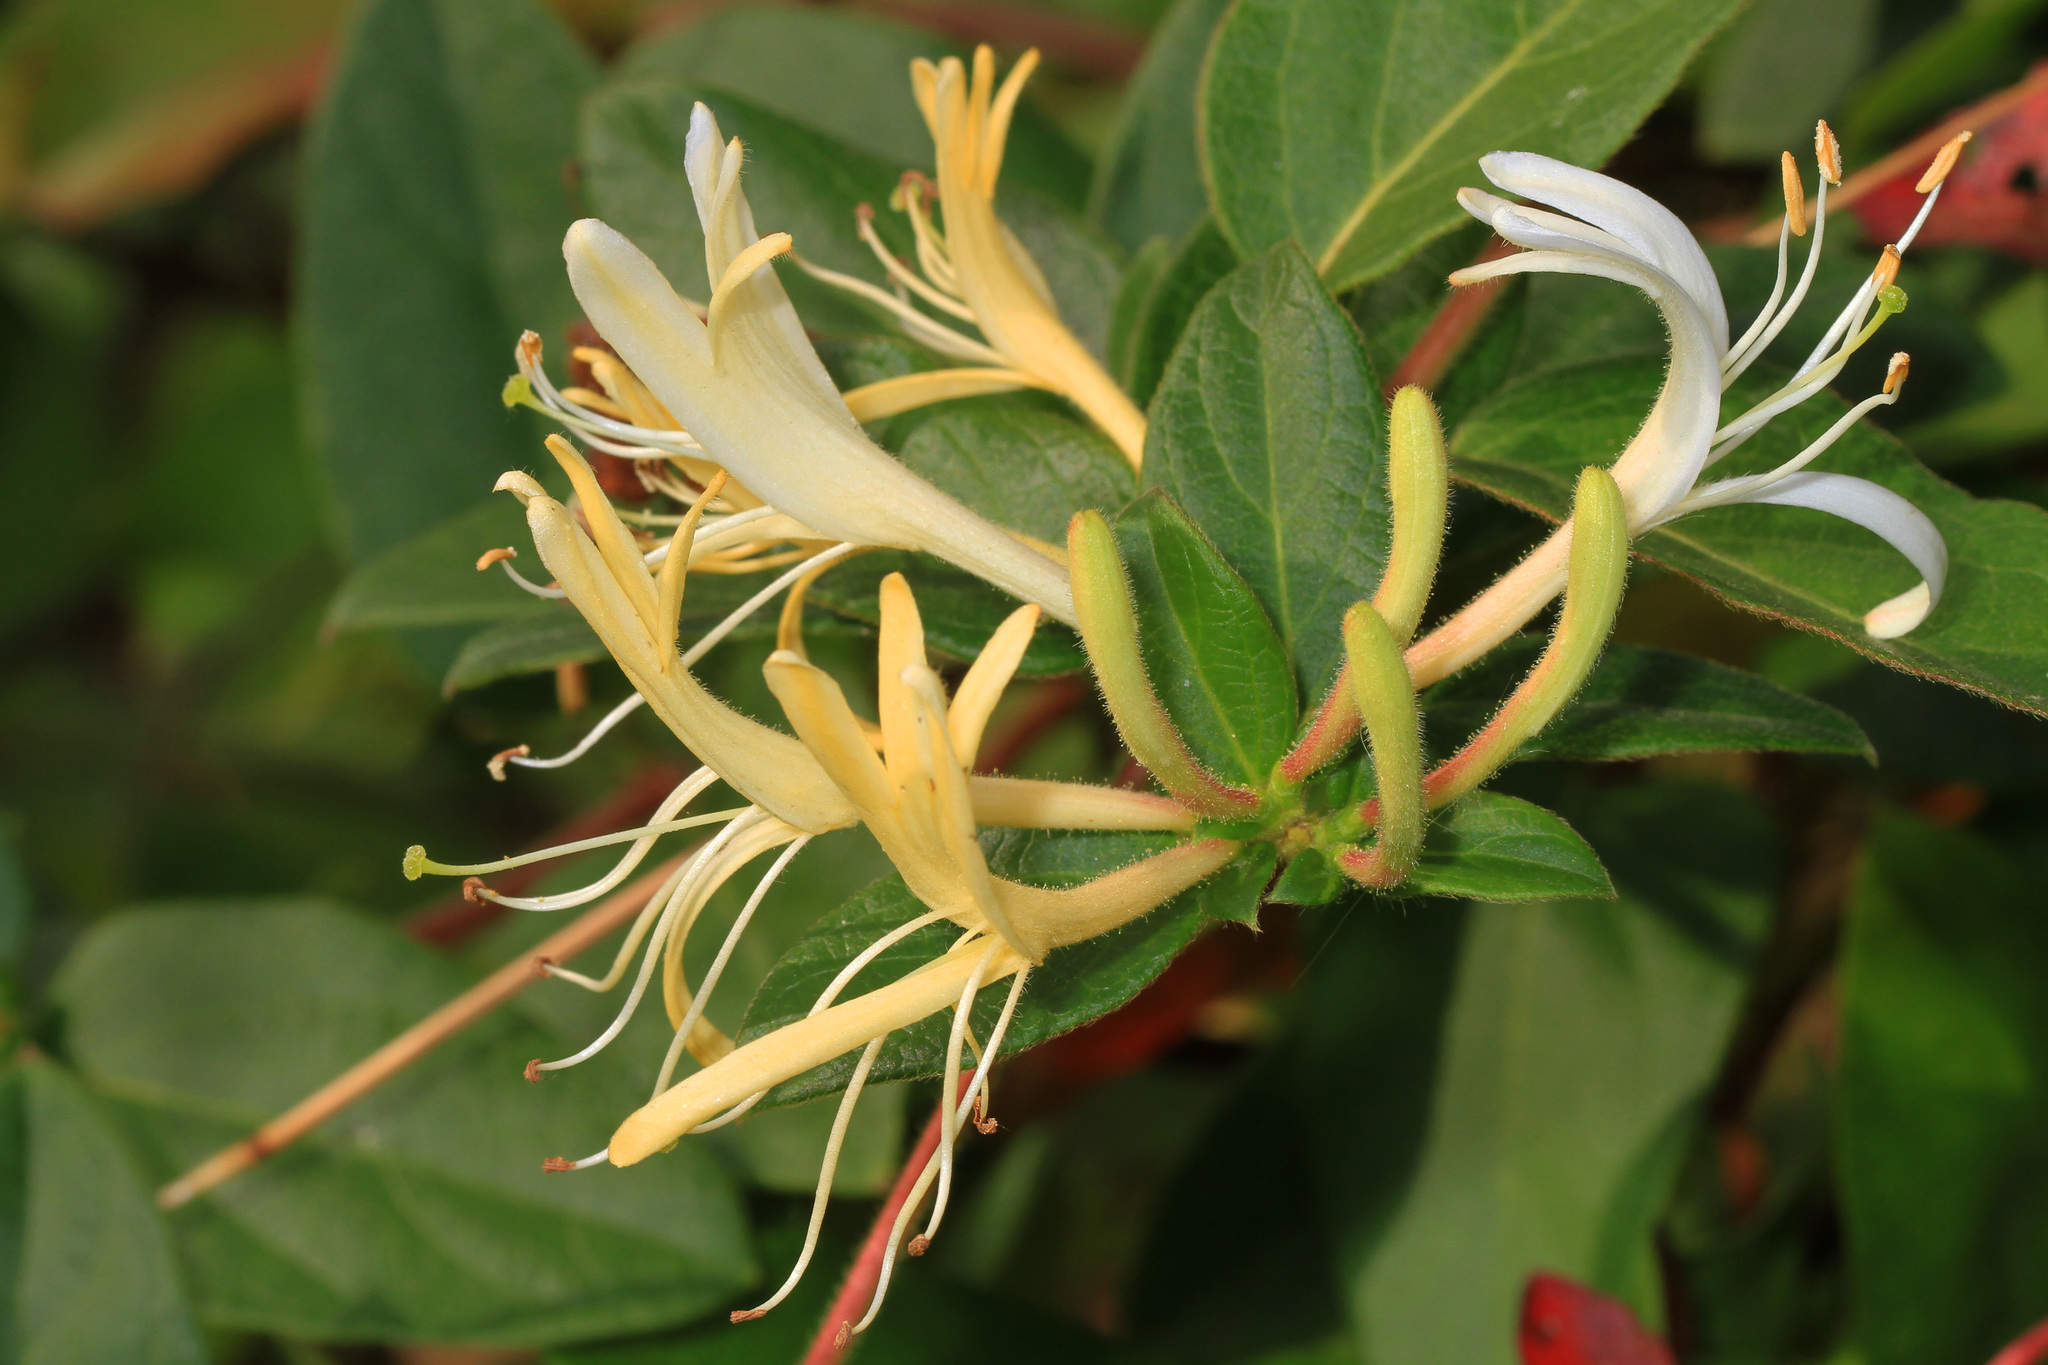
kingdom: Plantae
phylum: Tracheophyta
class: Magnoliopsida
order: Dipsacales
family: Caprifoliaceae
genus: Lonicera
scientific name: Lonicera japonica
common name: Japanese honeysuckle
